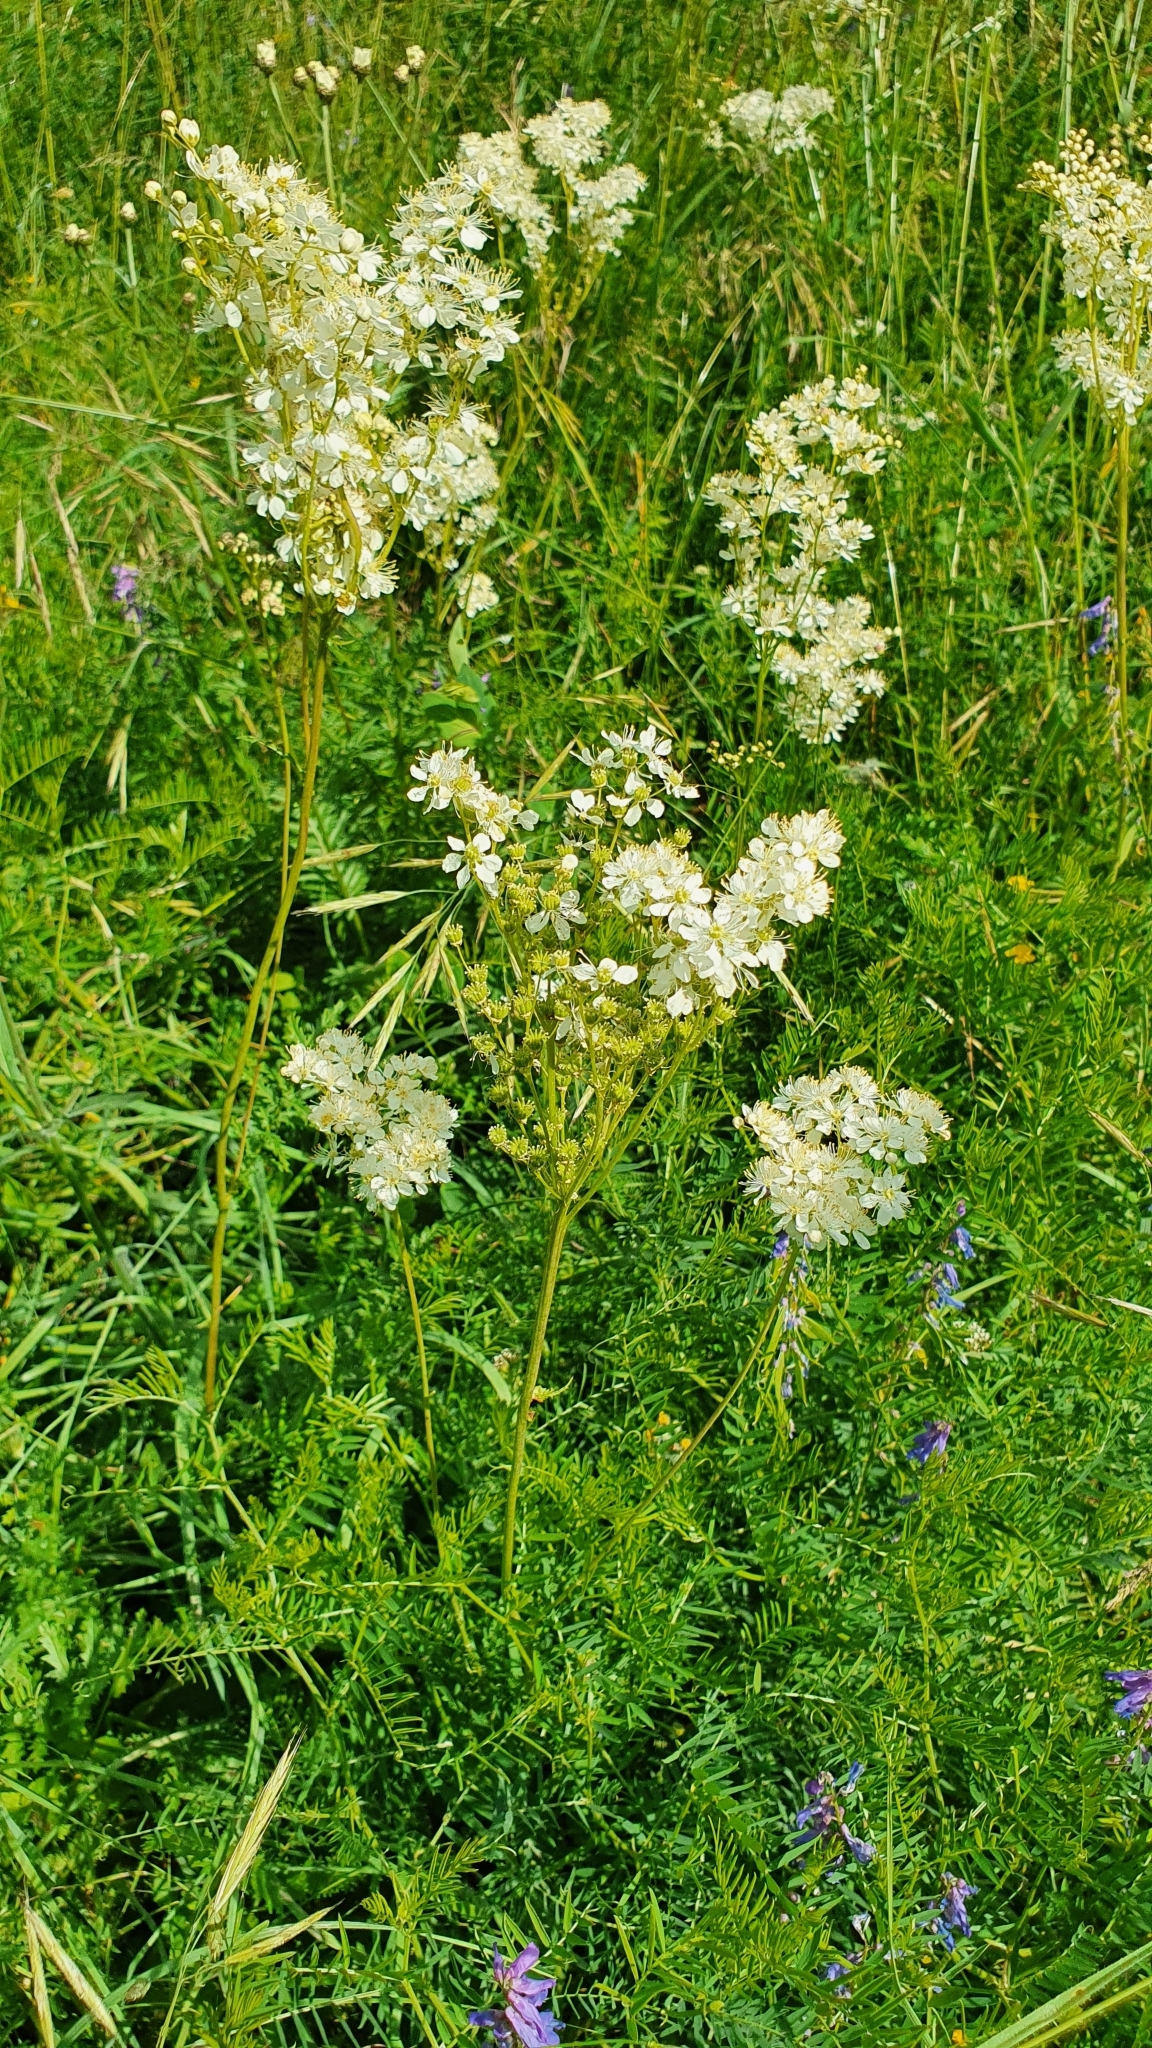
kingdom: Plantae
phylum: Tracheophyta
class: Magnoliopsida
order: Rosales
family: Rosaceae
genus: Filipendula
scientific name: Filipendula vulgaris
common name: Dropwort
